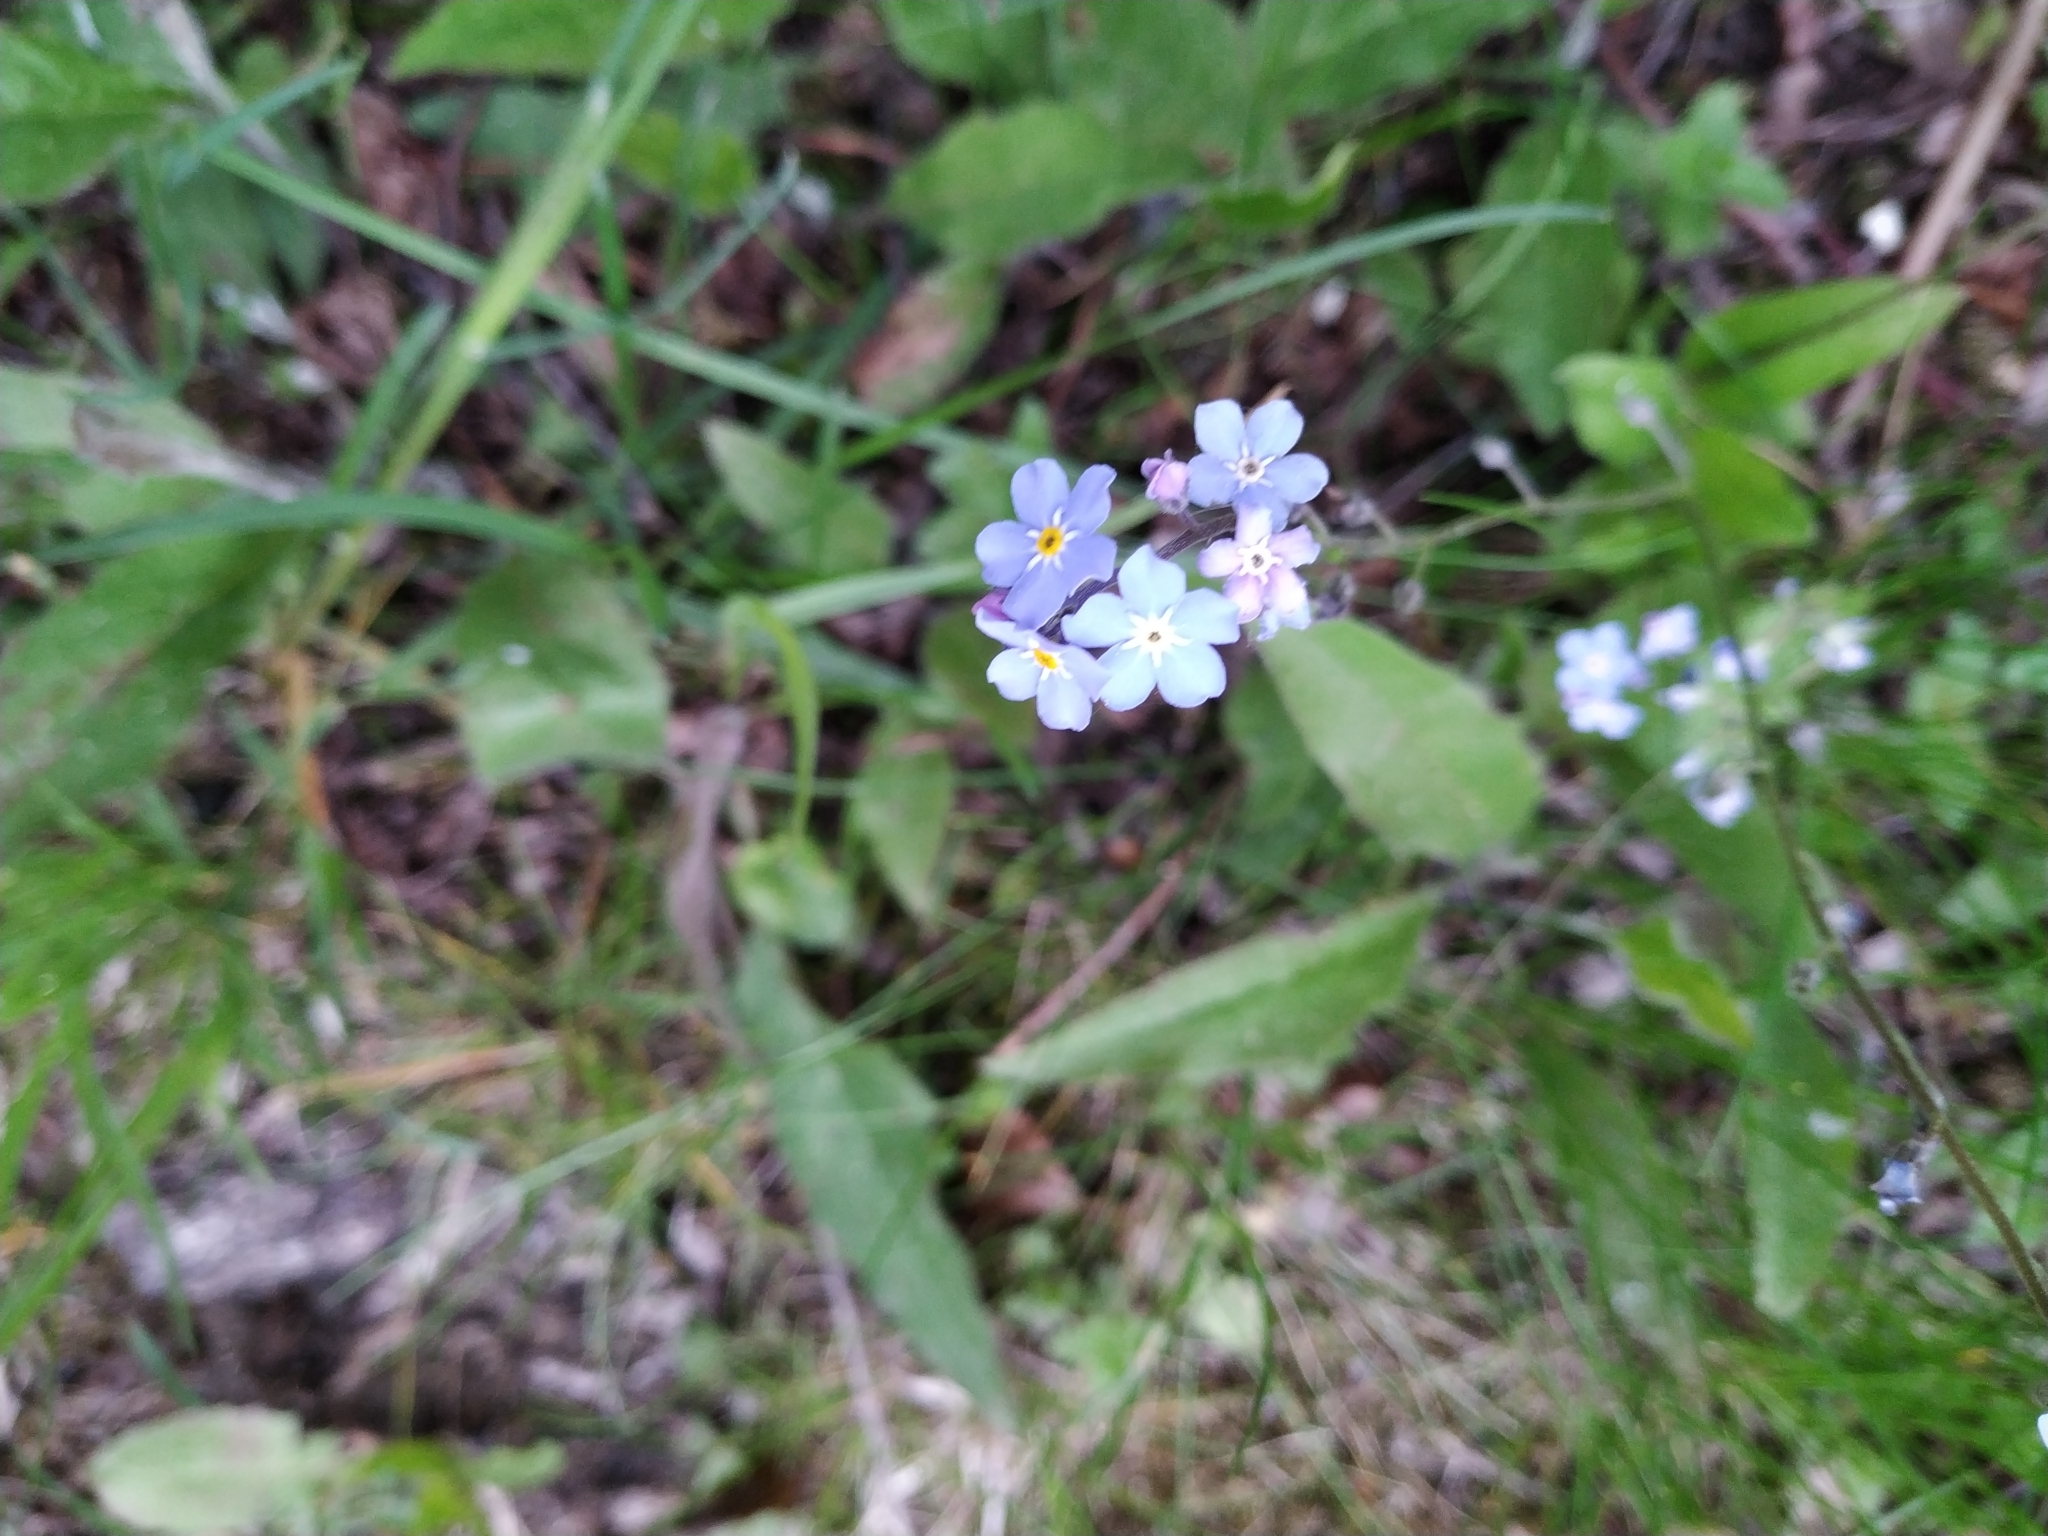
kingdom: Plantae
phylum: Tracheophyta
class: Magnoliopsida
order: Boraginales
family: Boraginaceae
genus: Myosotis
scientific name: Myosotis sylvatica
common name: Wood forget-me-not
